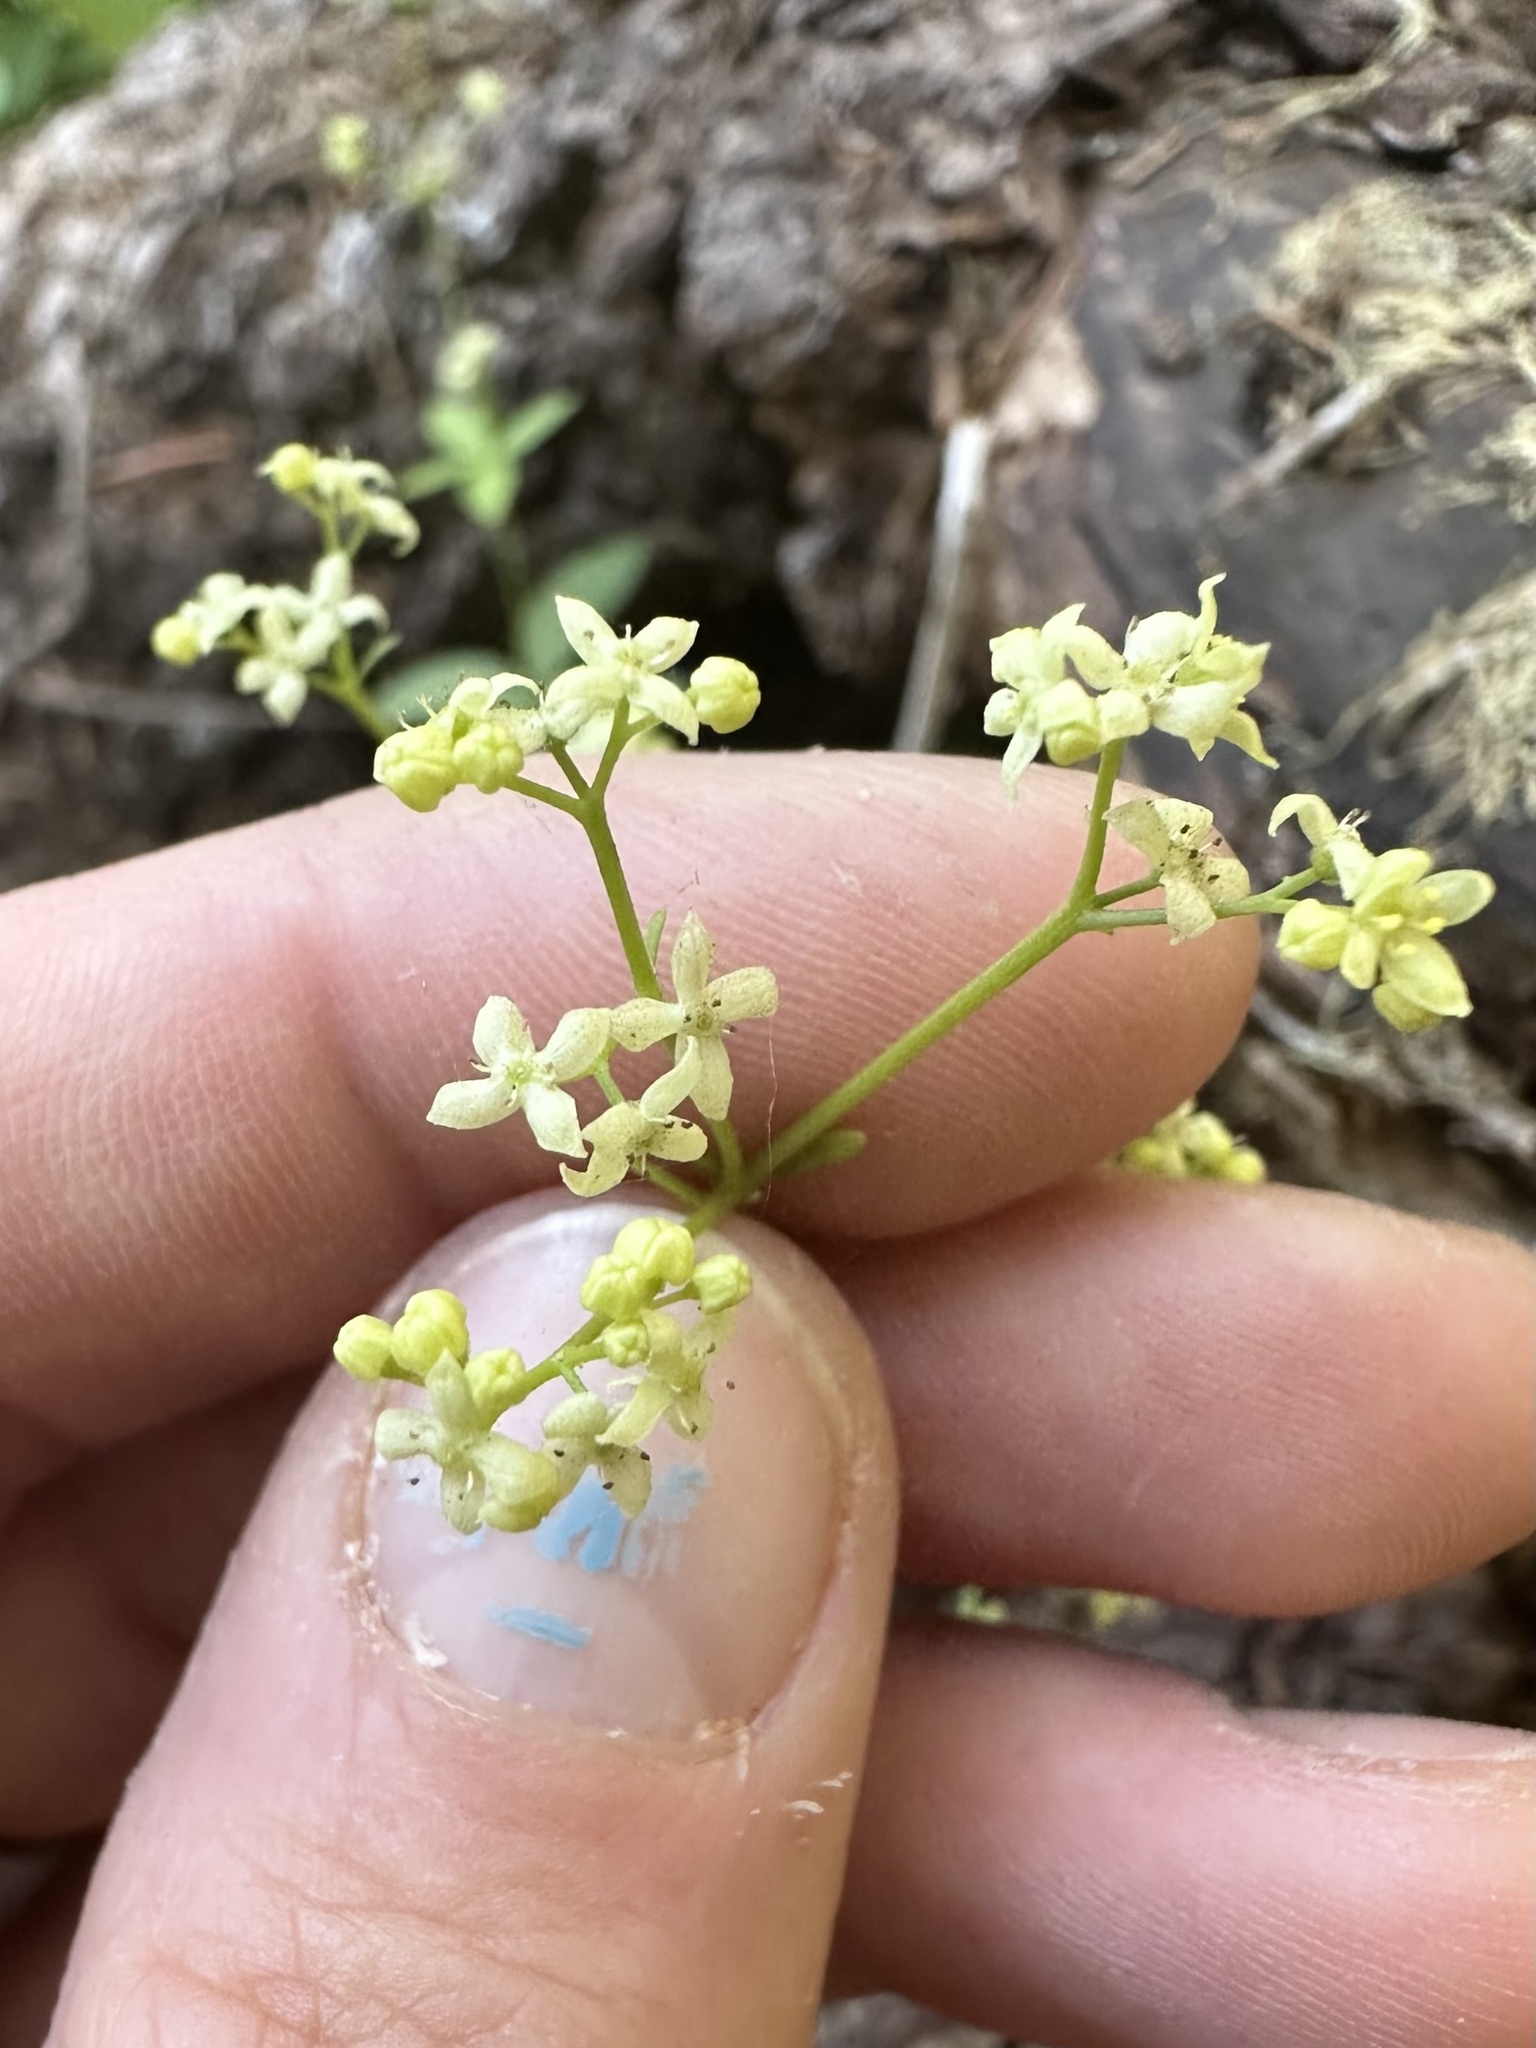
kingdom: Plantae
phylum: Tracheophyta
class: Magnoliopsida
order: Gentianales
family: Rubiaceae
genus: Galium
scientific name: Galium oreganum
